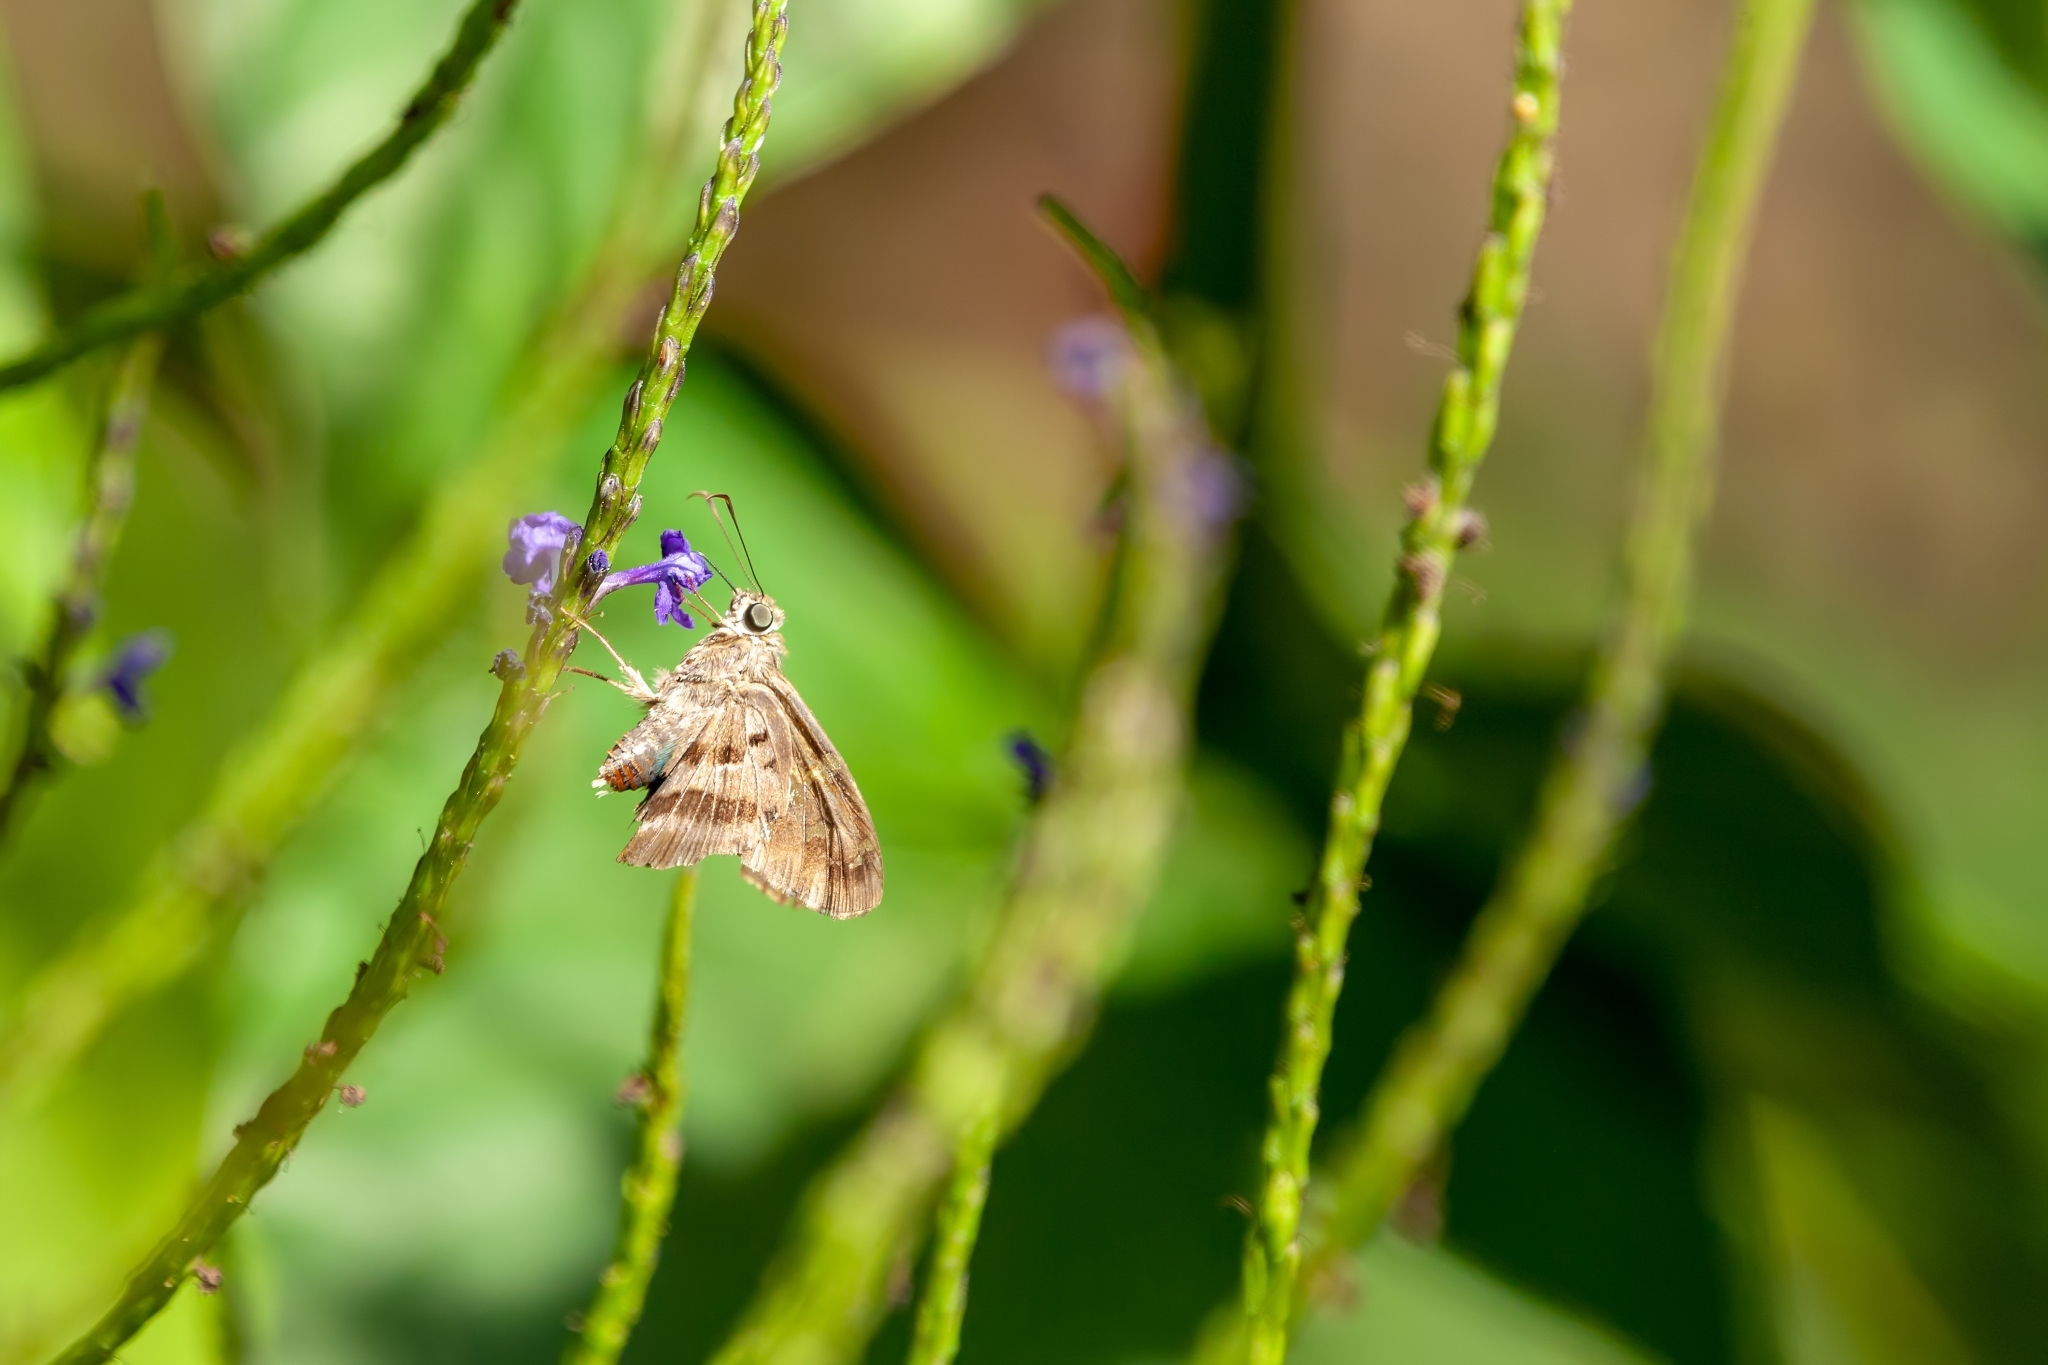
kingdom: Animalia
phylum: Arthropoda
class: Insecta
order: Lepidoptera
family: Hesperiidae
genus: Urbanus
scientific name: Urbanus proteus
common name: Long-tailed skipper
